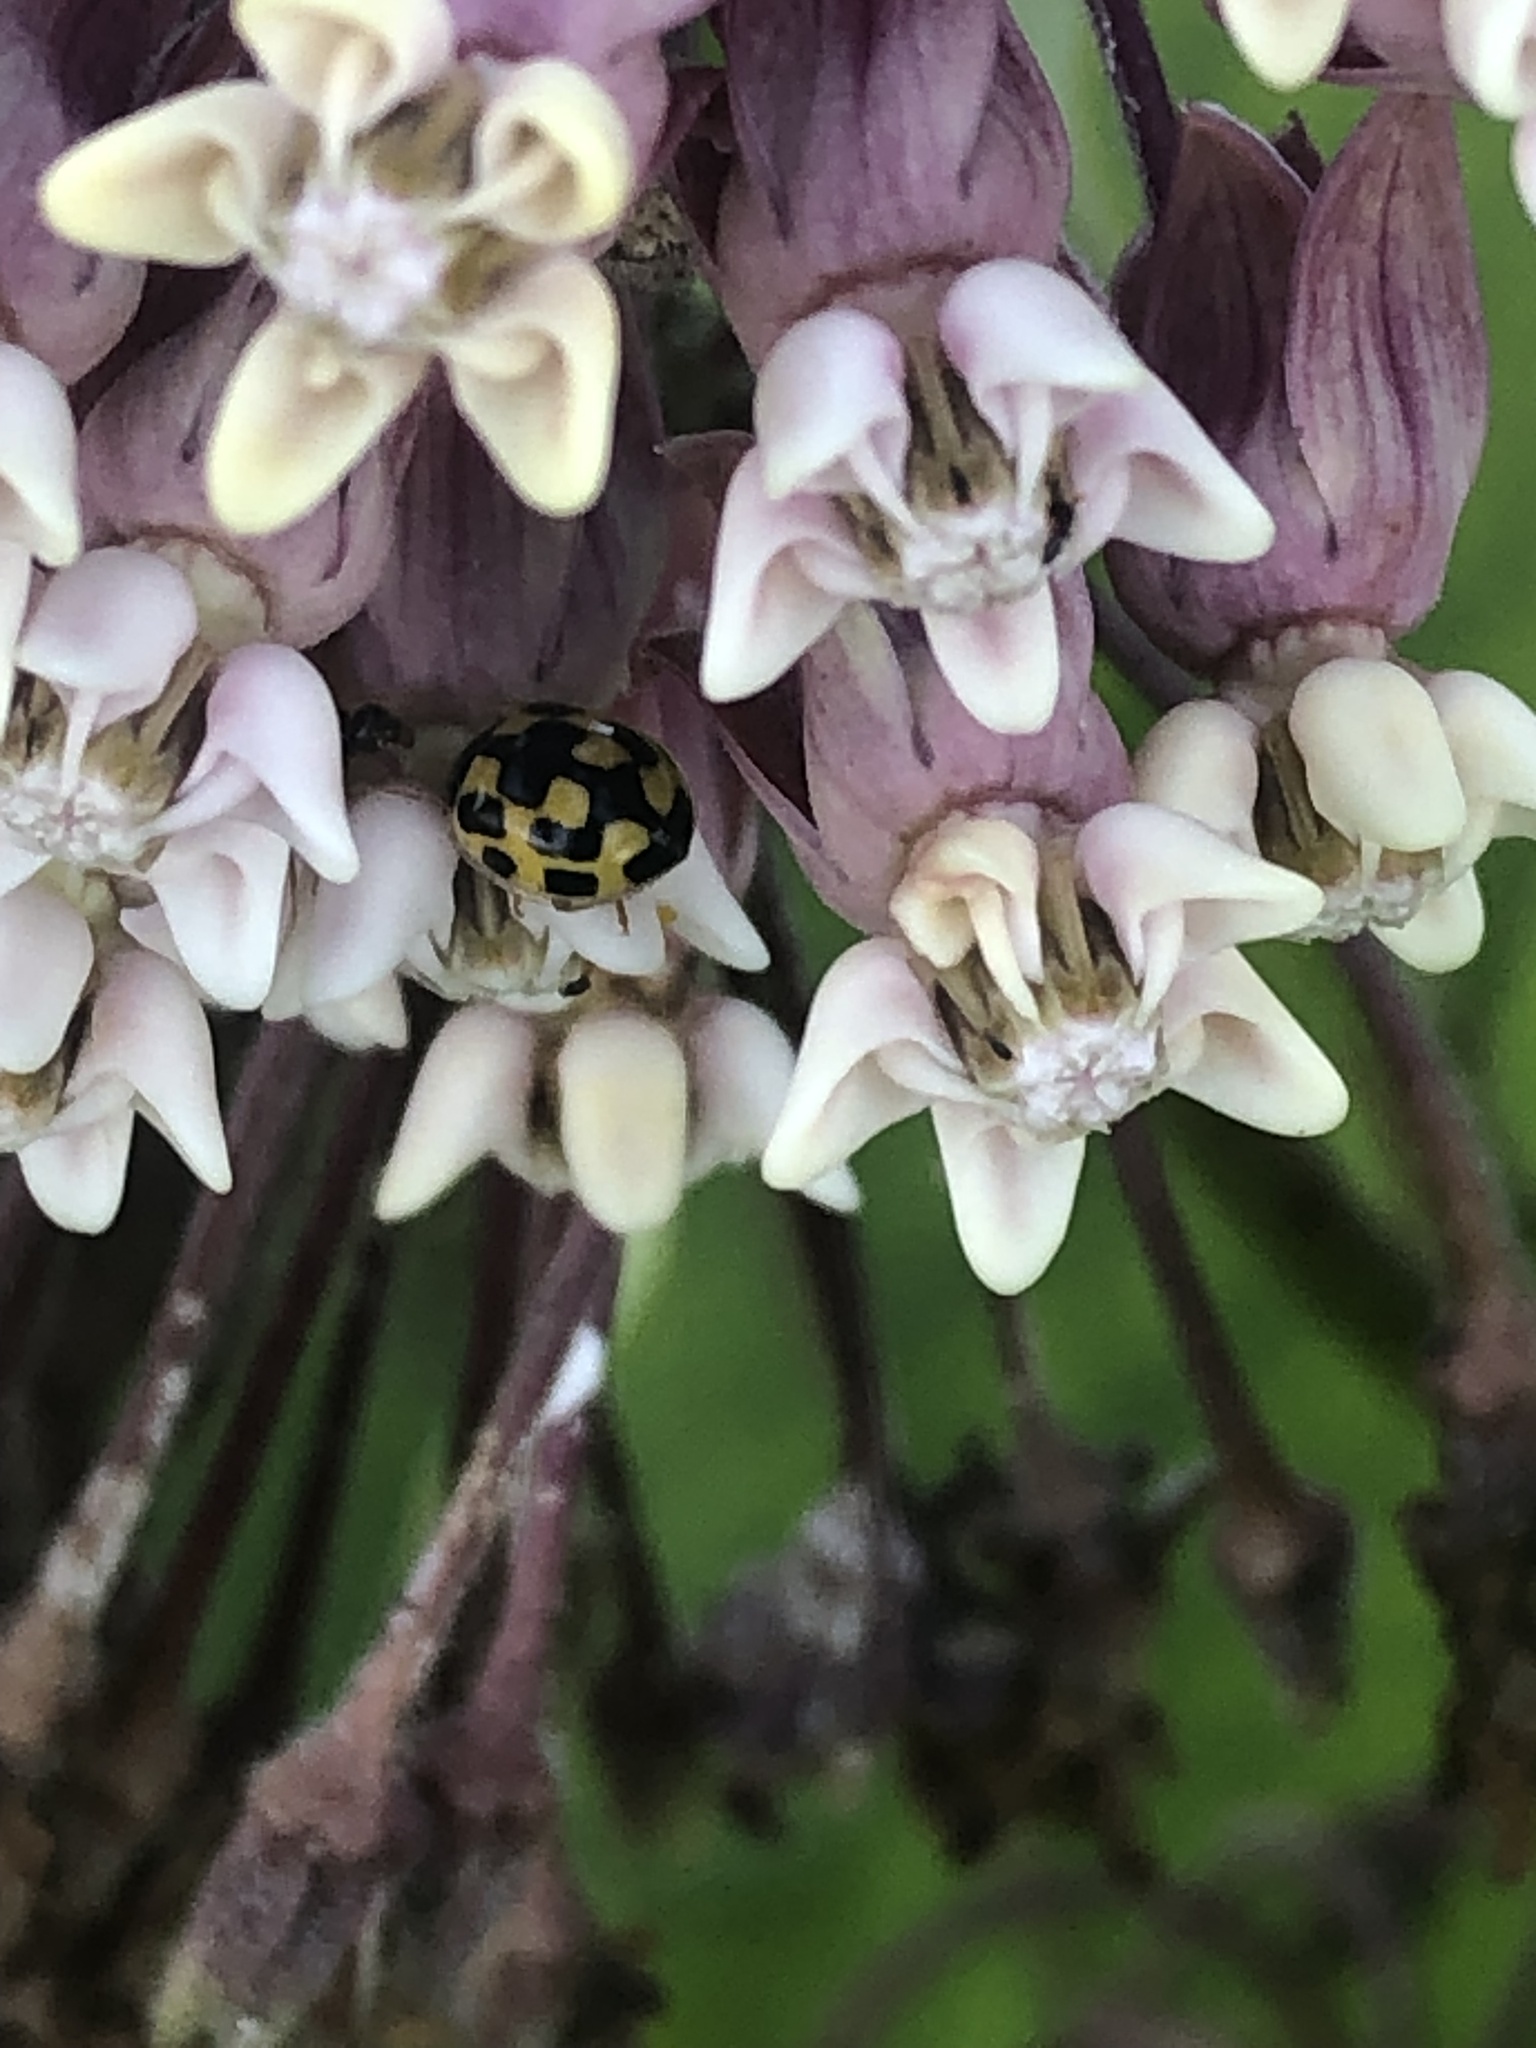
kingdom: Animalia
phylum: Arthropoda
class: Insecta
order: Coleoptera
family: Coccinellidae
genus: Propylaea
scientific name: Propylaea quatuordecimpunctata
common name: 14-spotted ladybird beetle
